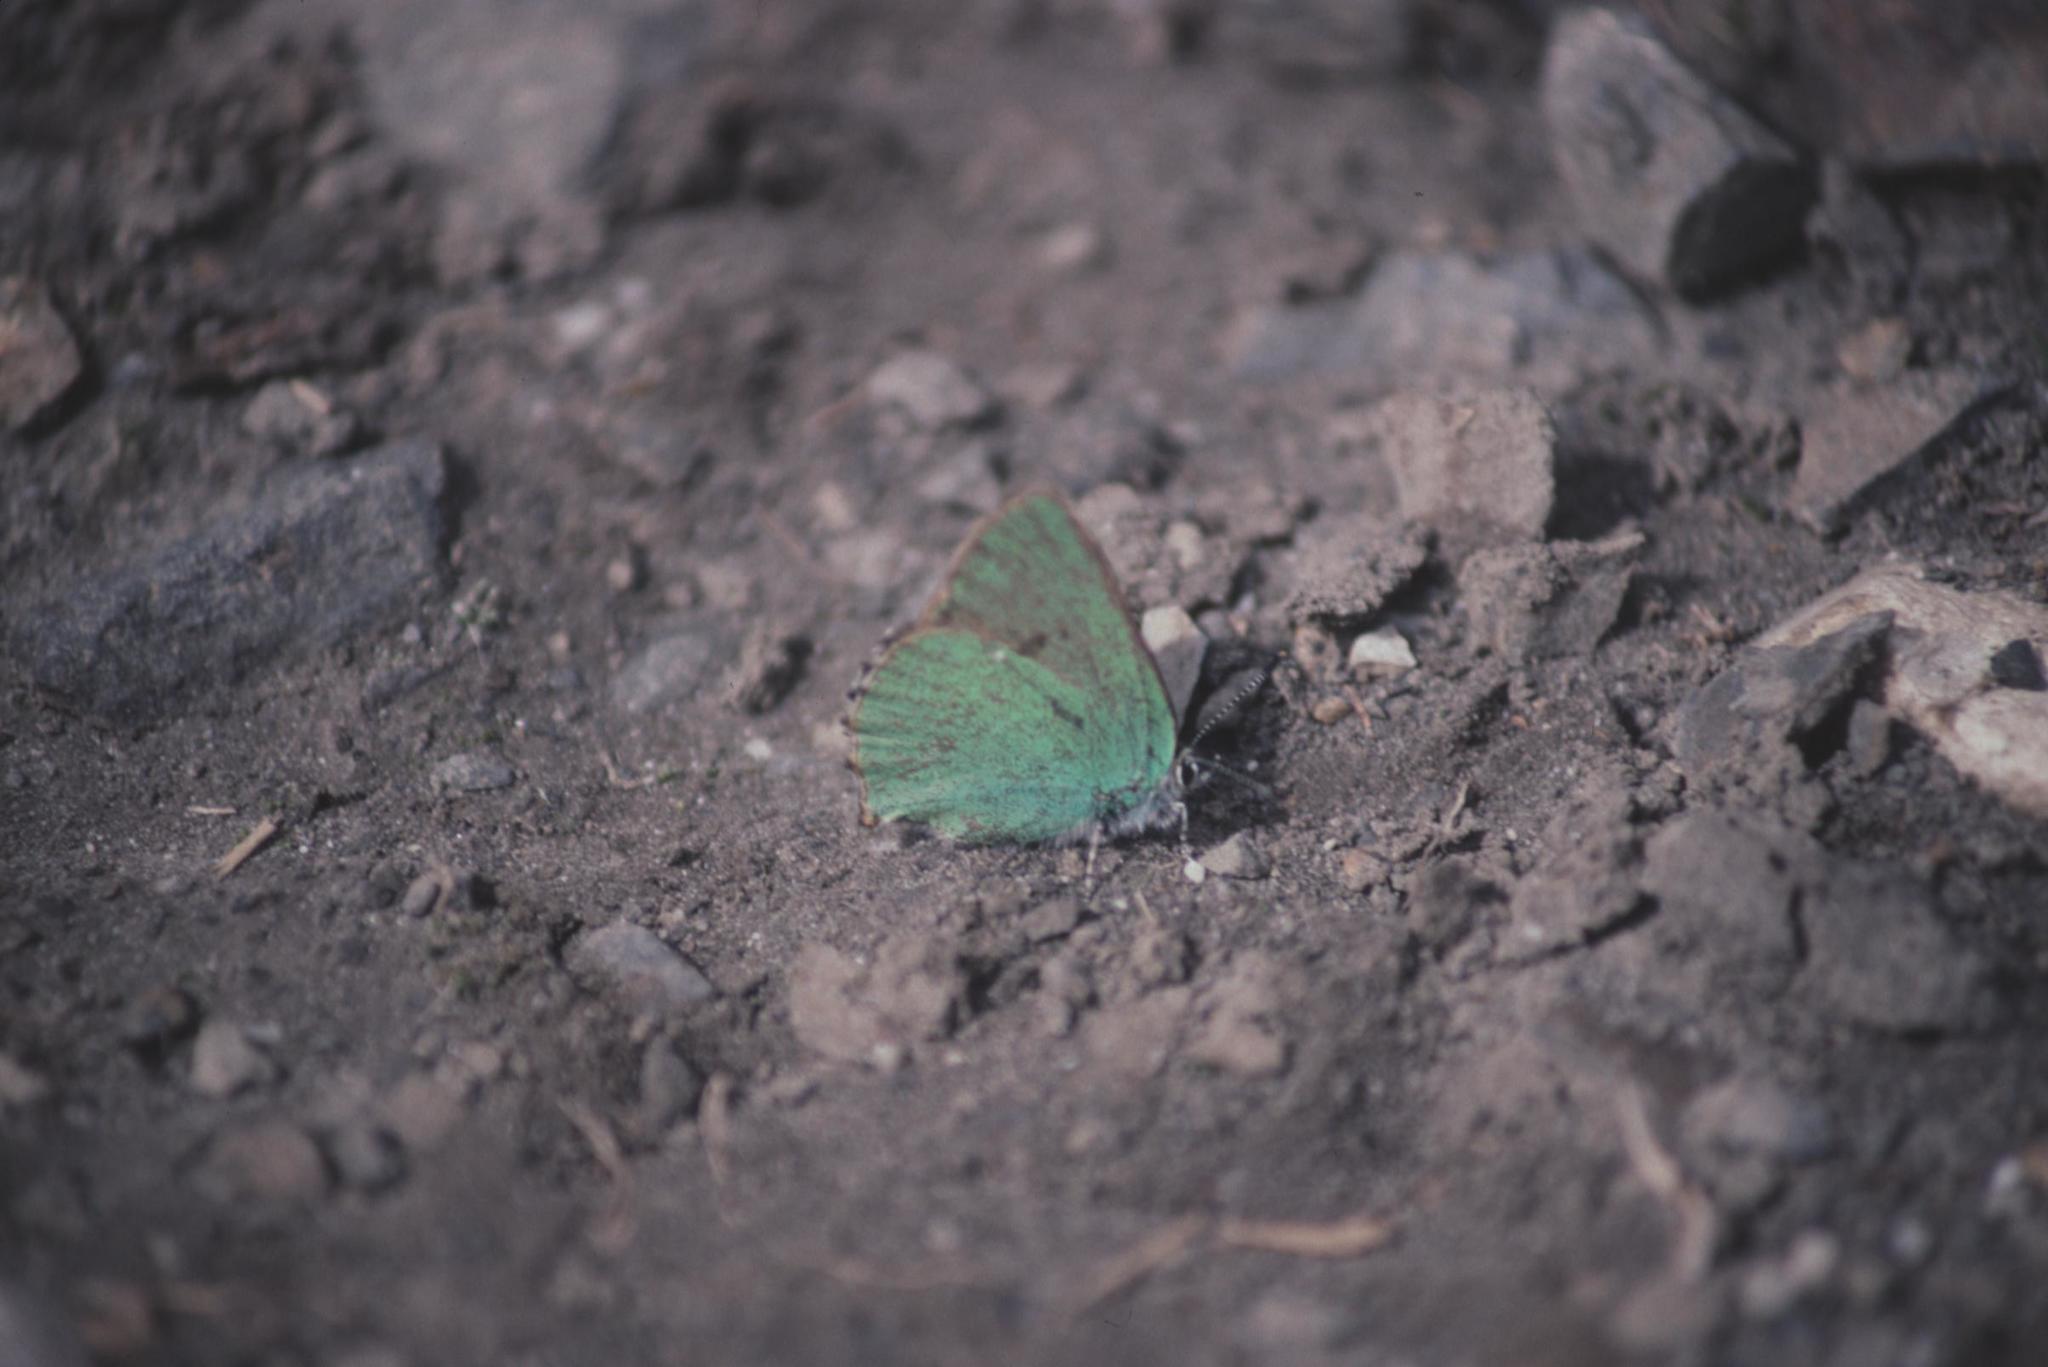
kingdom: Animalia
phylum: Arthropoda
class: Insecta
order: Lepidoptera
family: Lycaenidae
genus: Callophrys
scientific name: Callophrys rubi
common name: Green hairstreak
